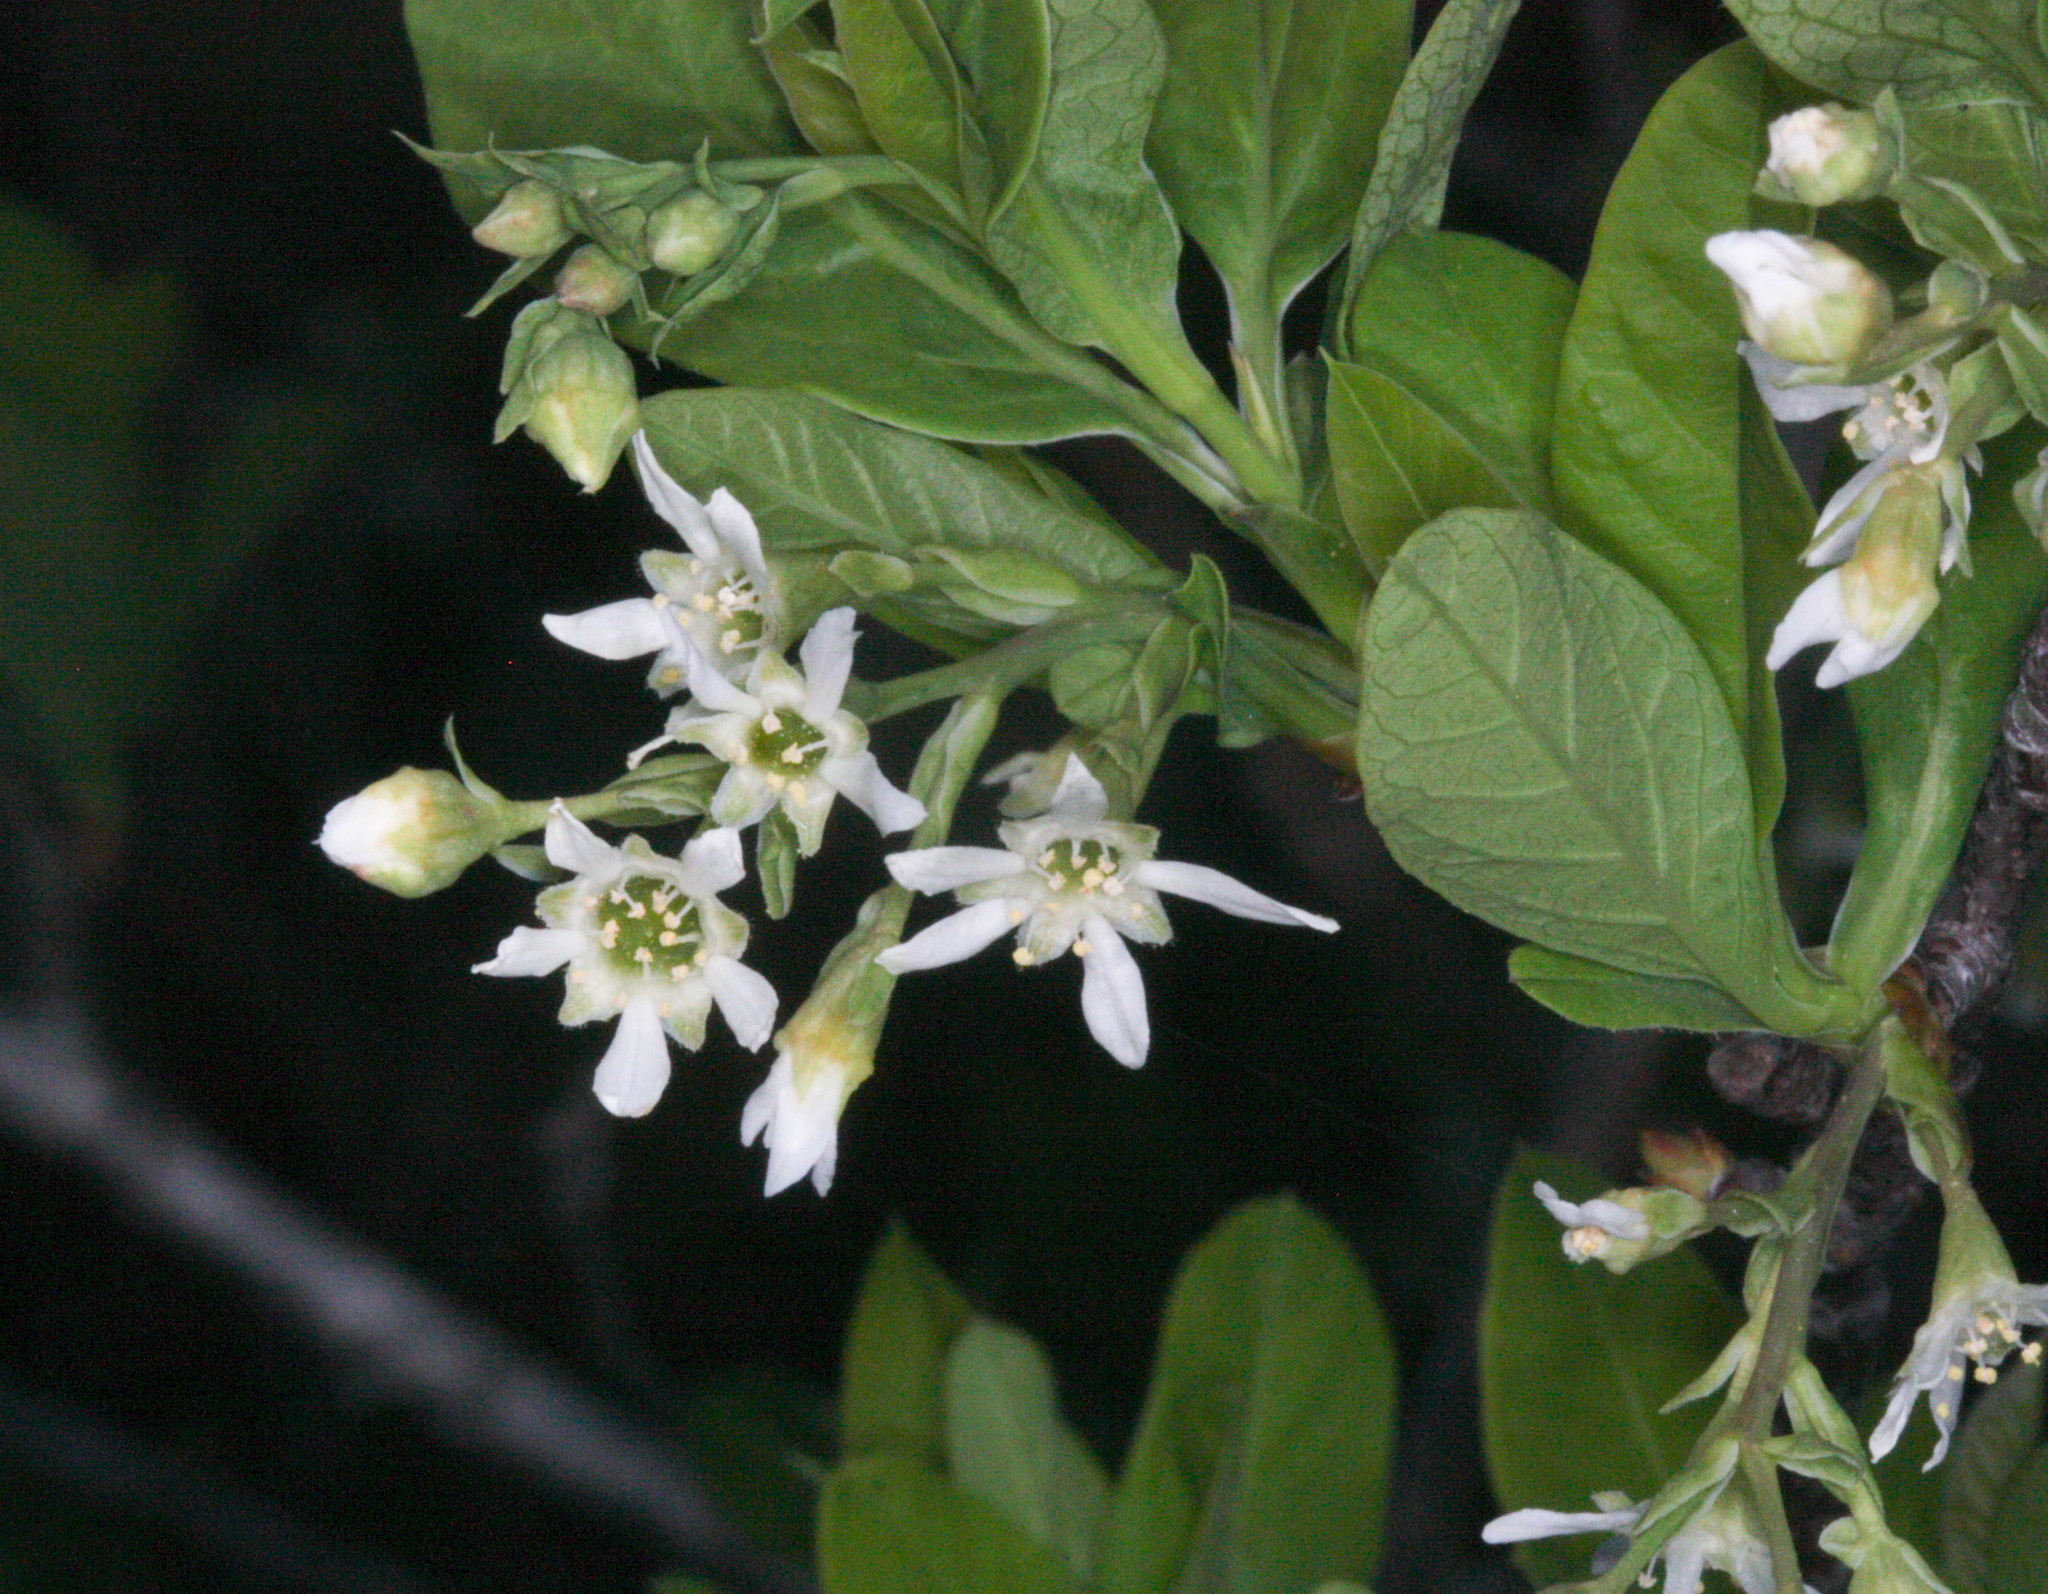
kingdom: Plantae
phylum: Tracheophyta
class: Magnoliopsida
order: Rosales
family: Rosaceae
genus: Oemleria
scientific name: Oemleria cerasiformis
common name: Osoberry
